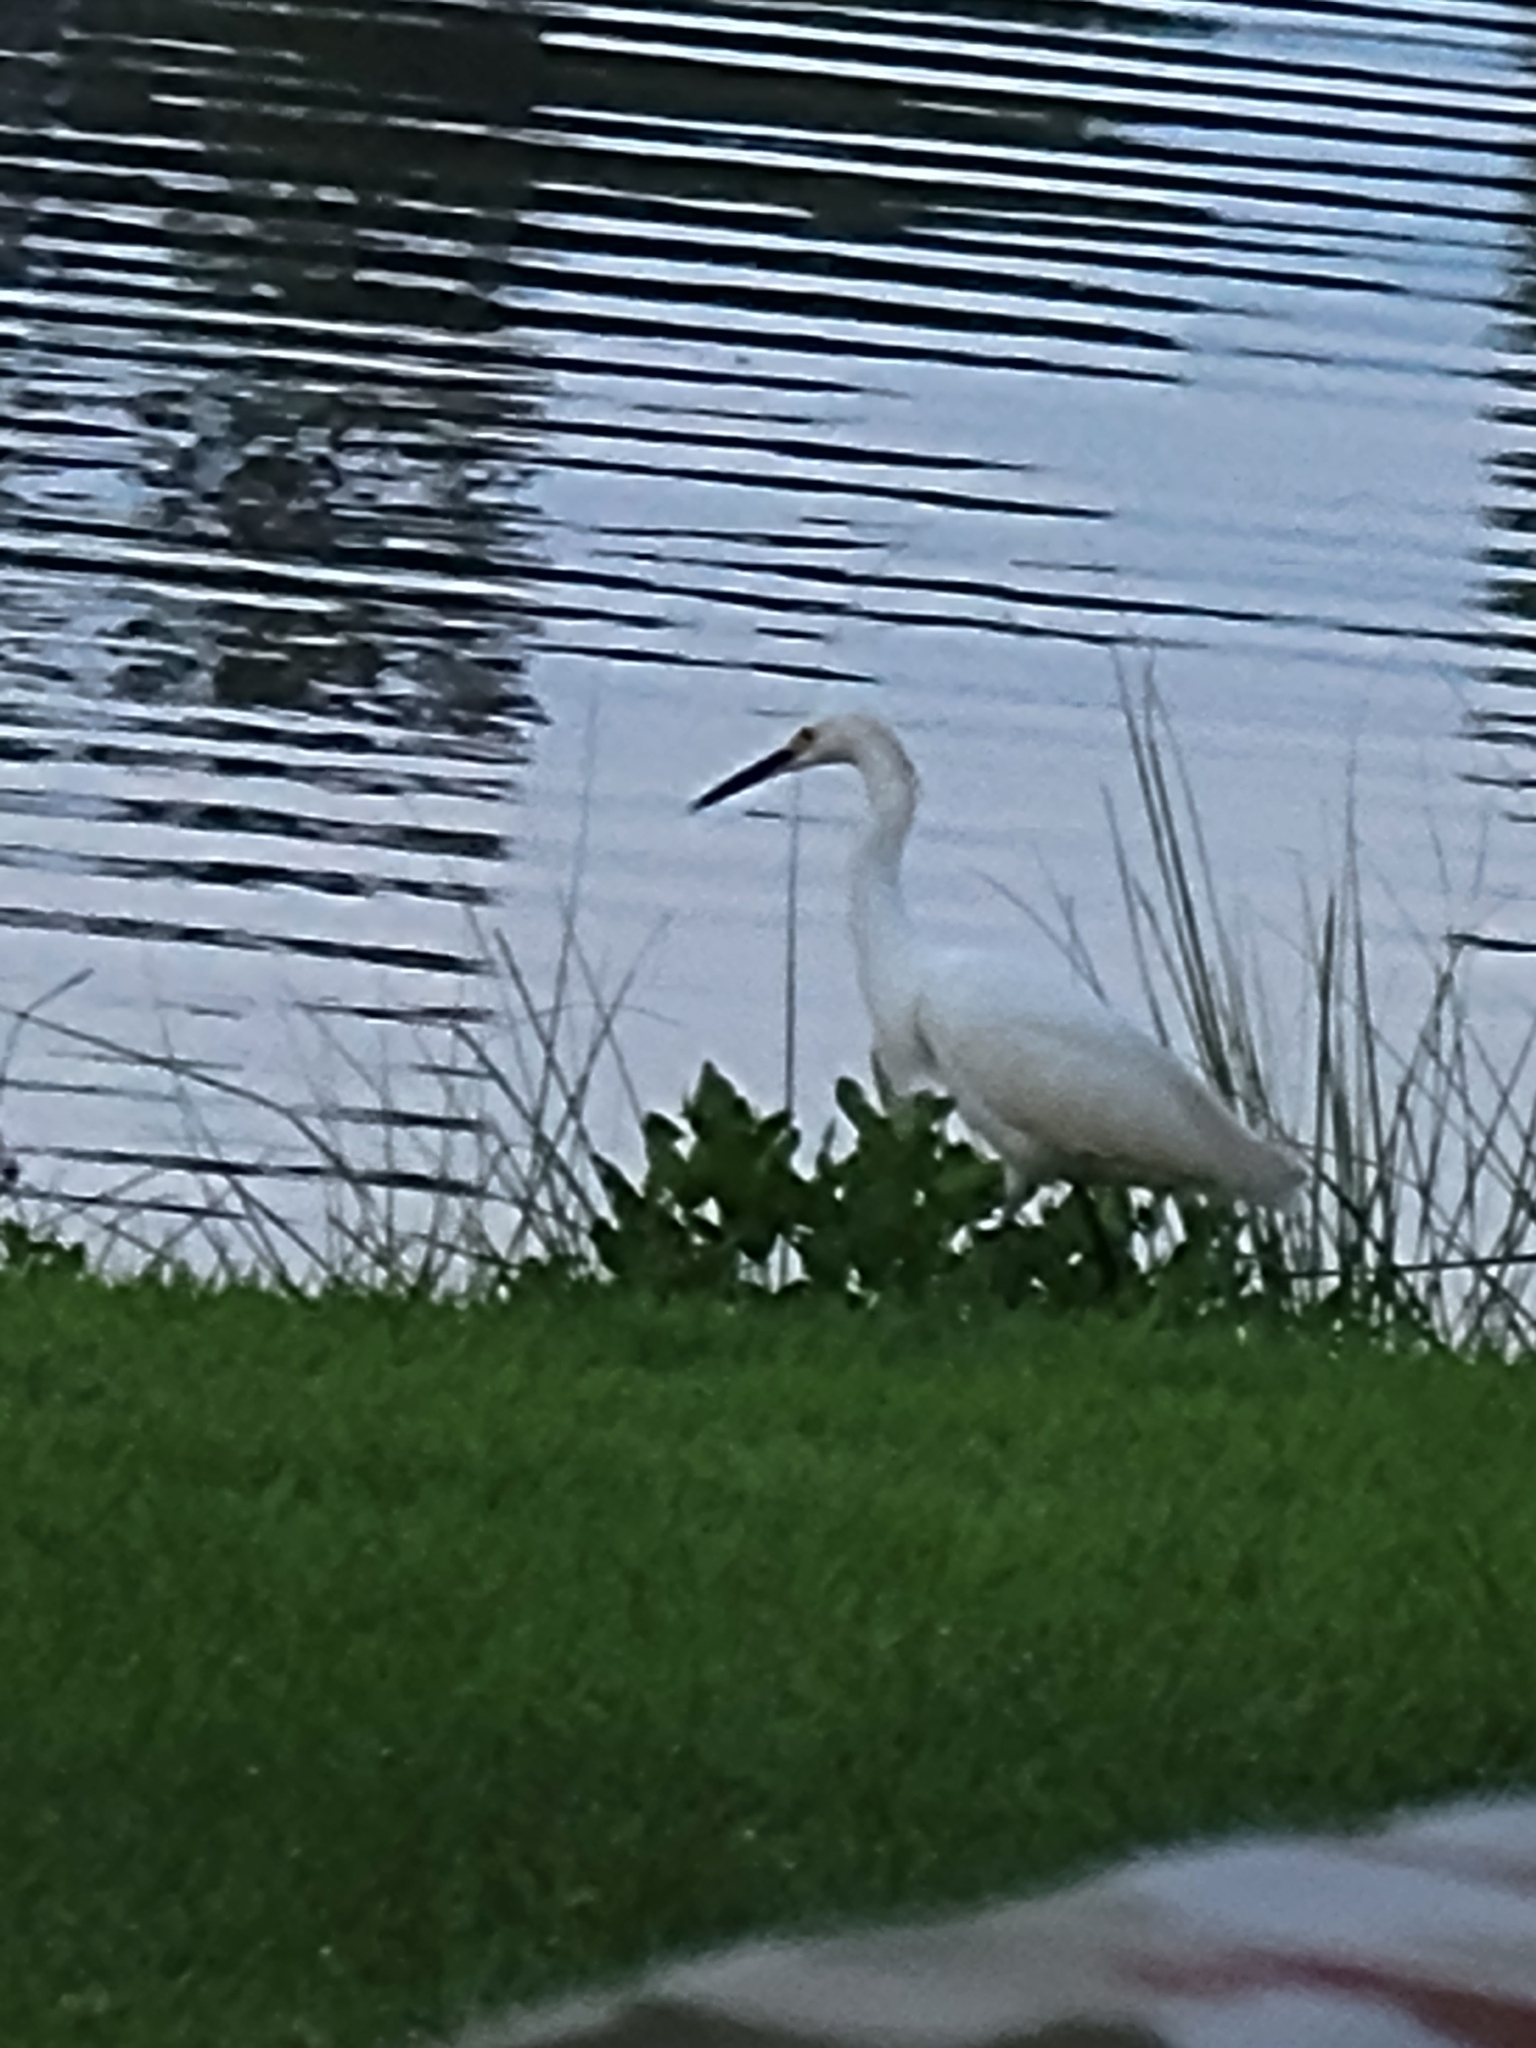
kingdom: Animalia
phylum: Chordata
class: Aves
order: Pelecaniformes
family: Ardeidae
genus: Egretta
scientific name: Egretta thula
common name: Snowy egret
